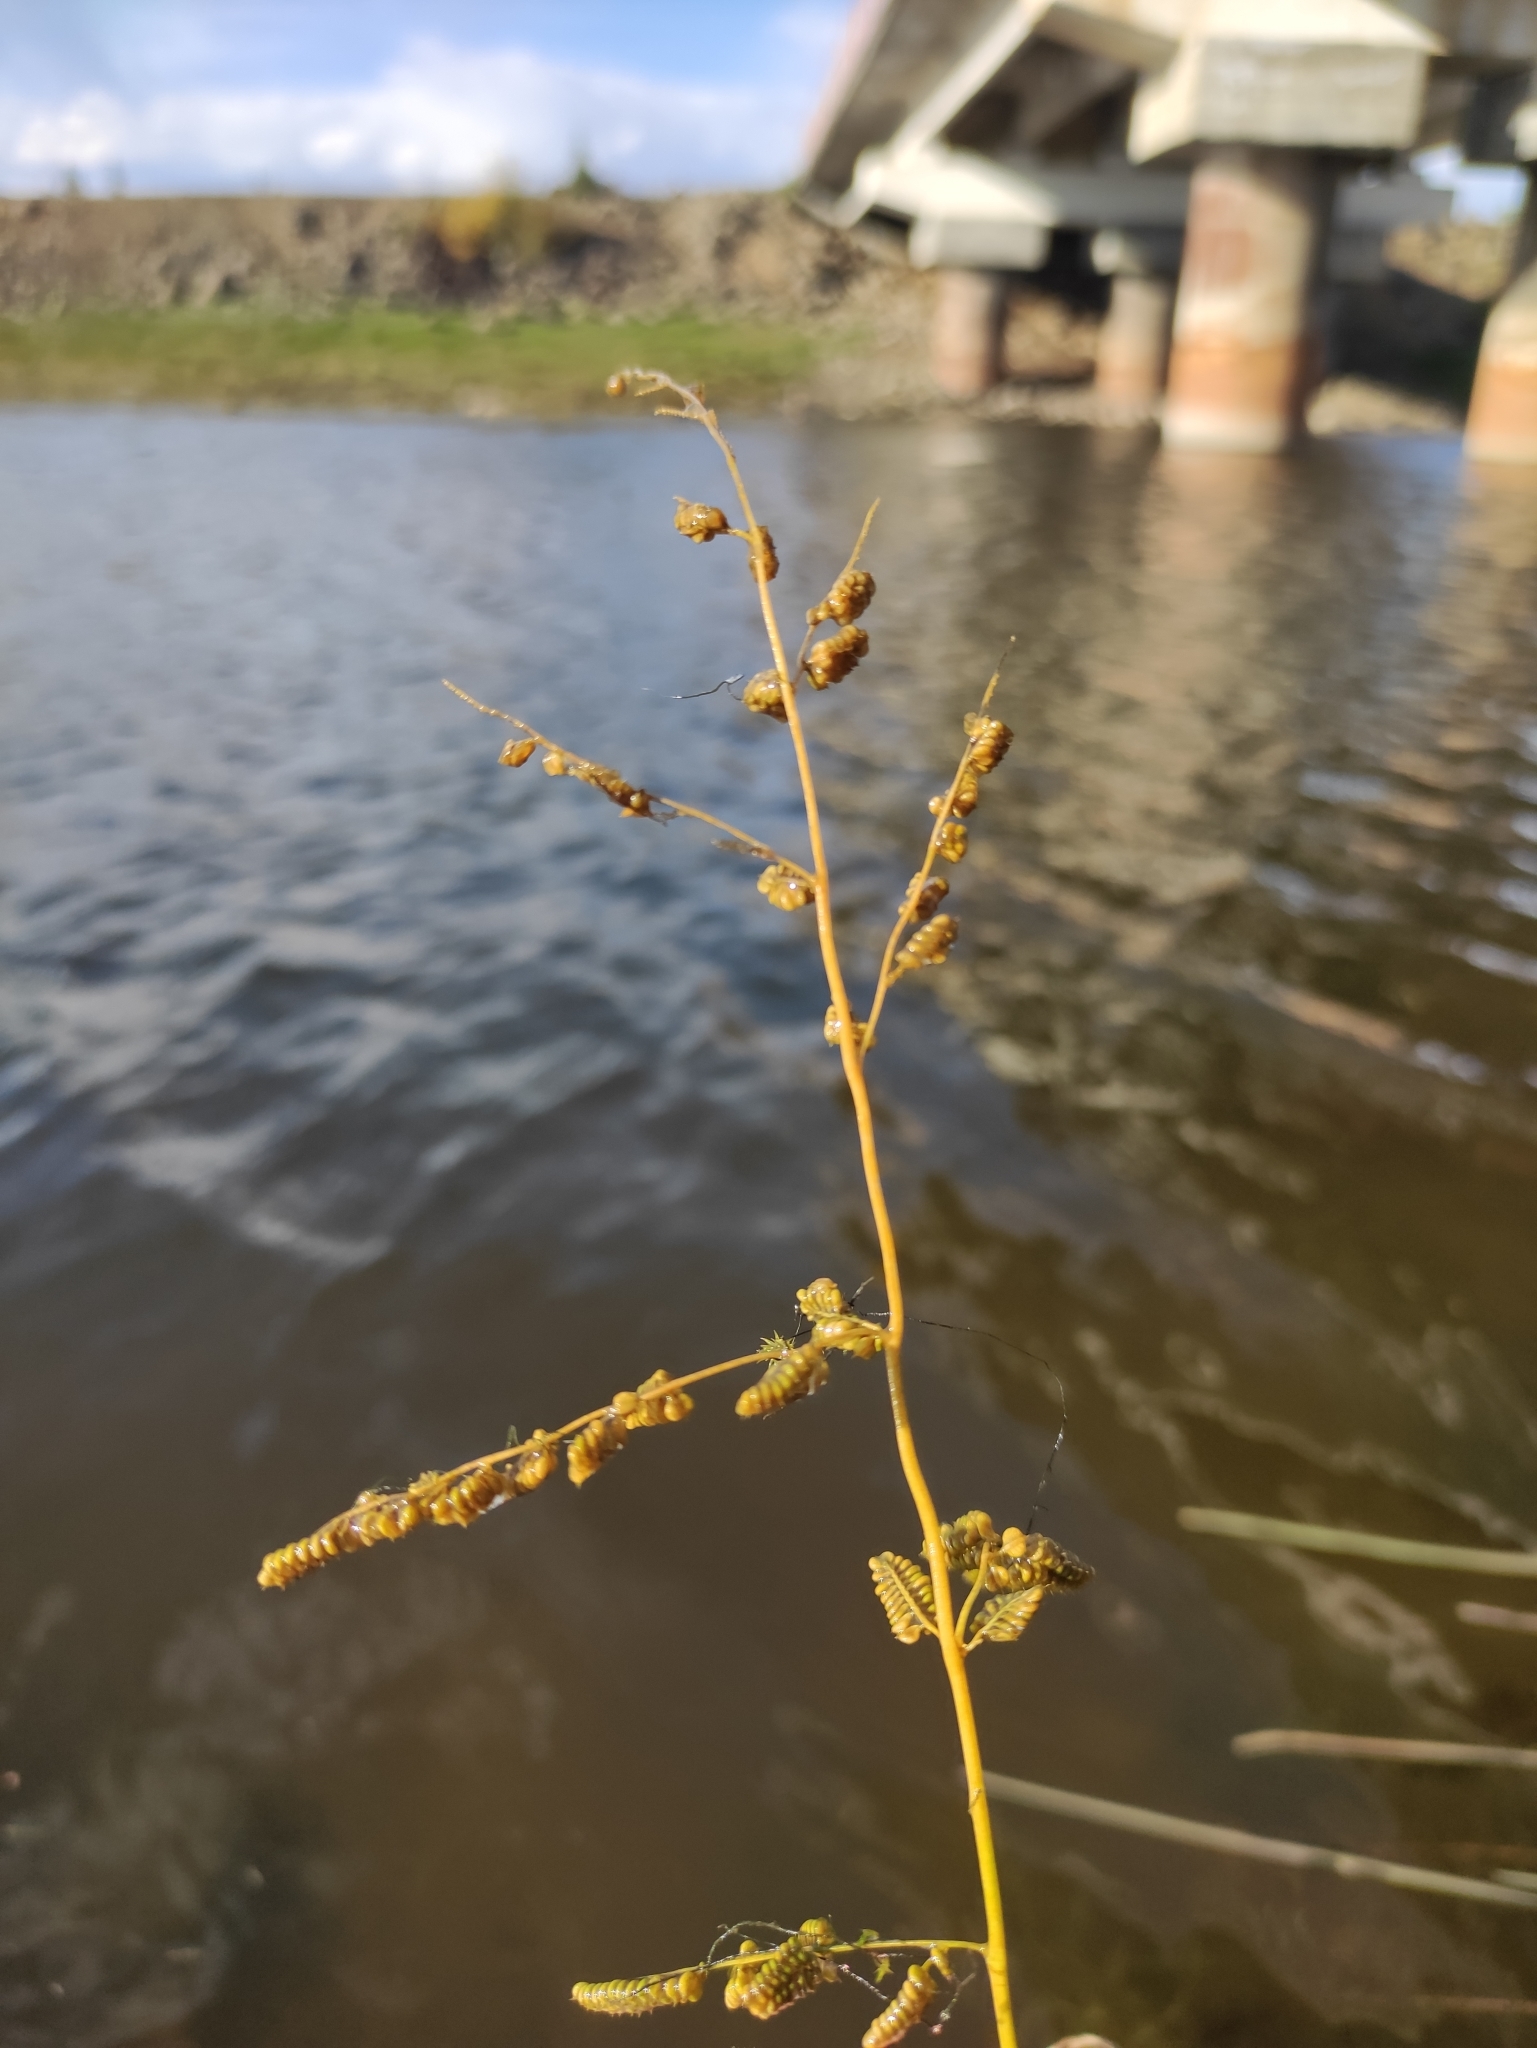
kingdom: Plantae
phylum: Tracheophyta
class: Liliopsida
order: Poales
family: Poaceae
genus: Beckmannia
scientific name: Beckmannia syzigachne
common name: American slough-grass
